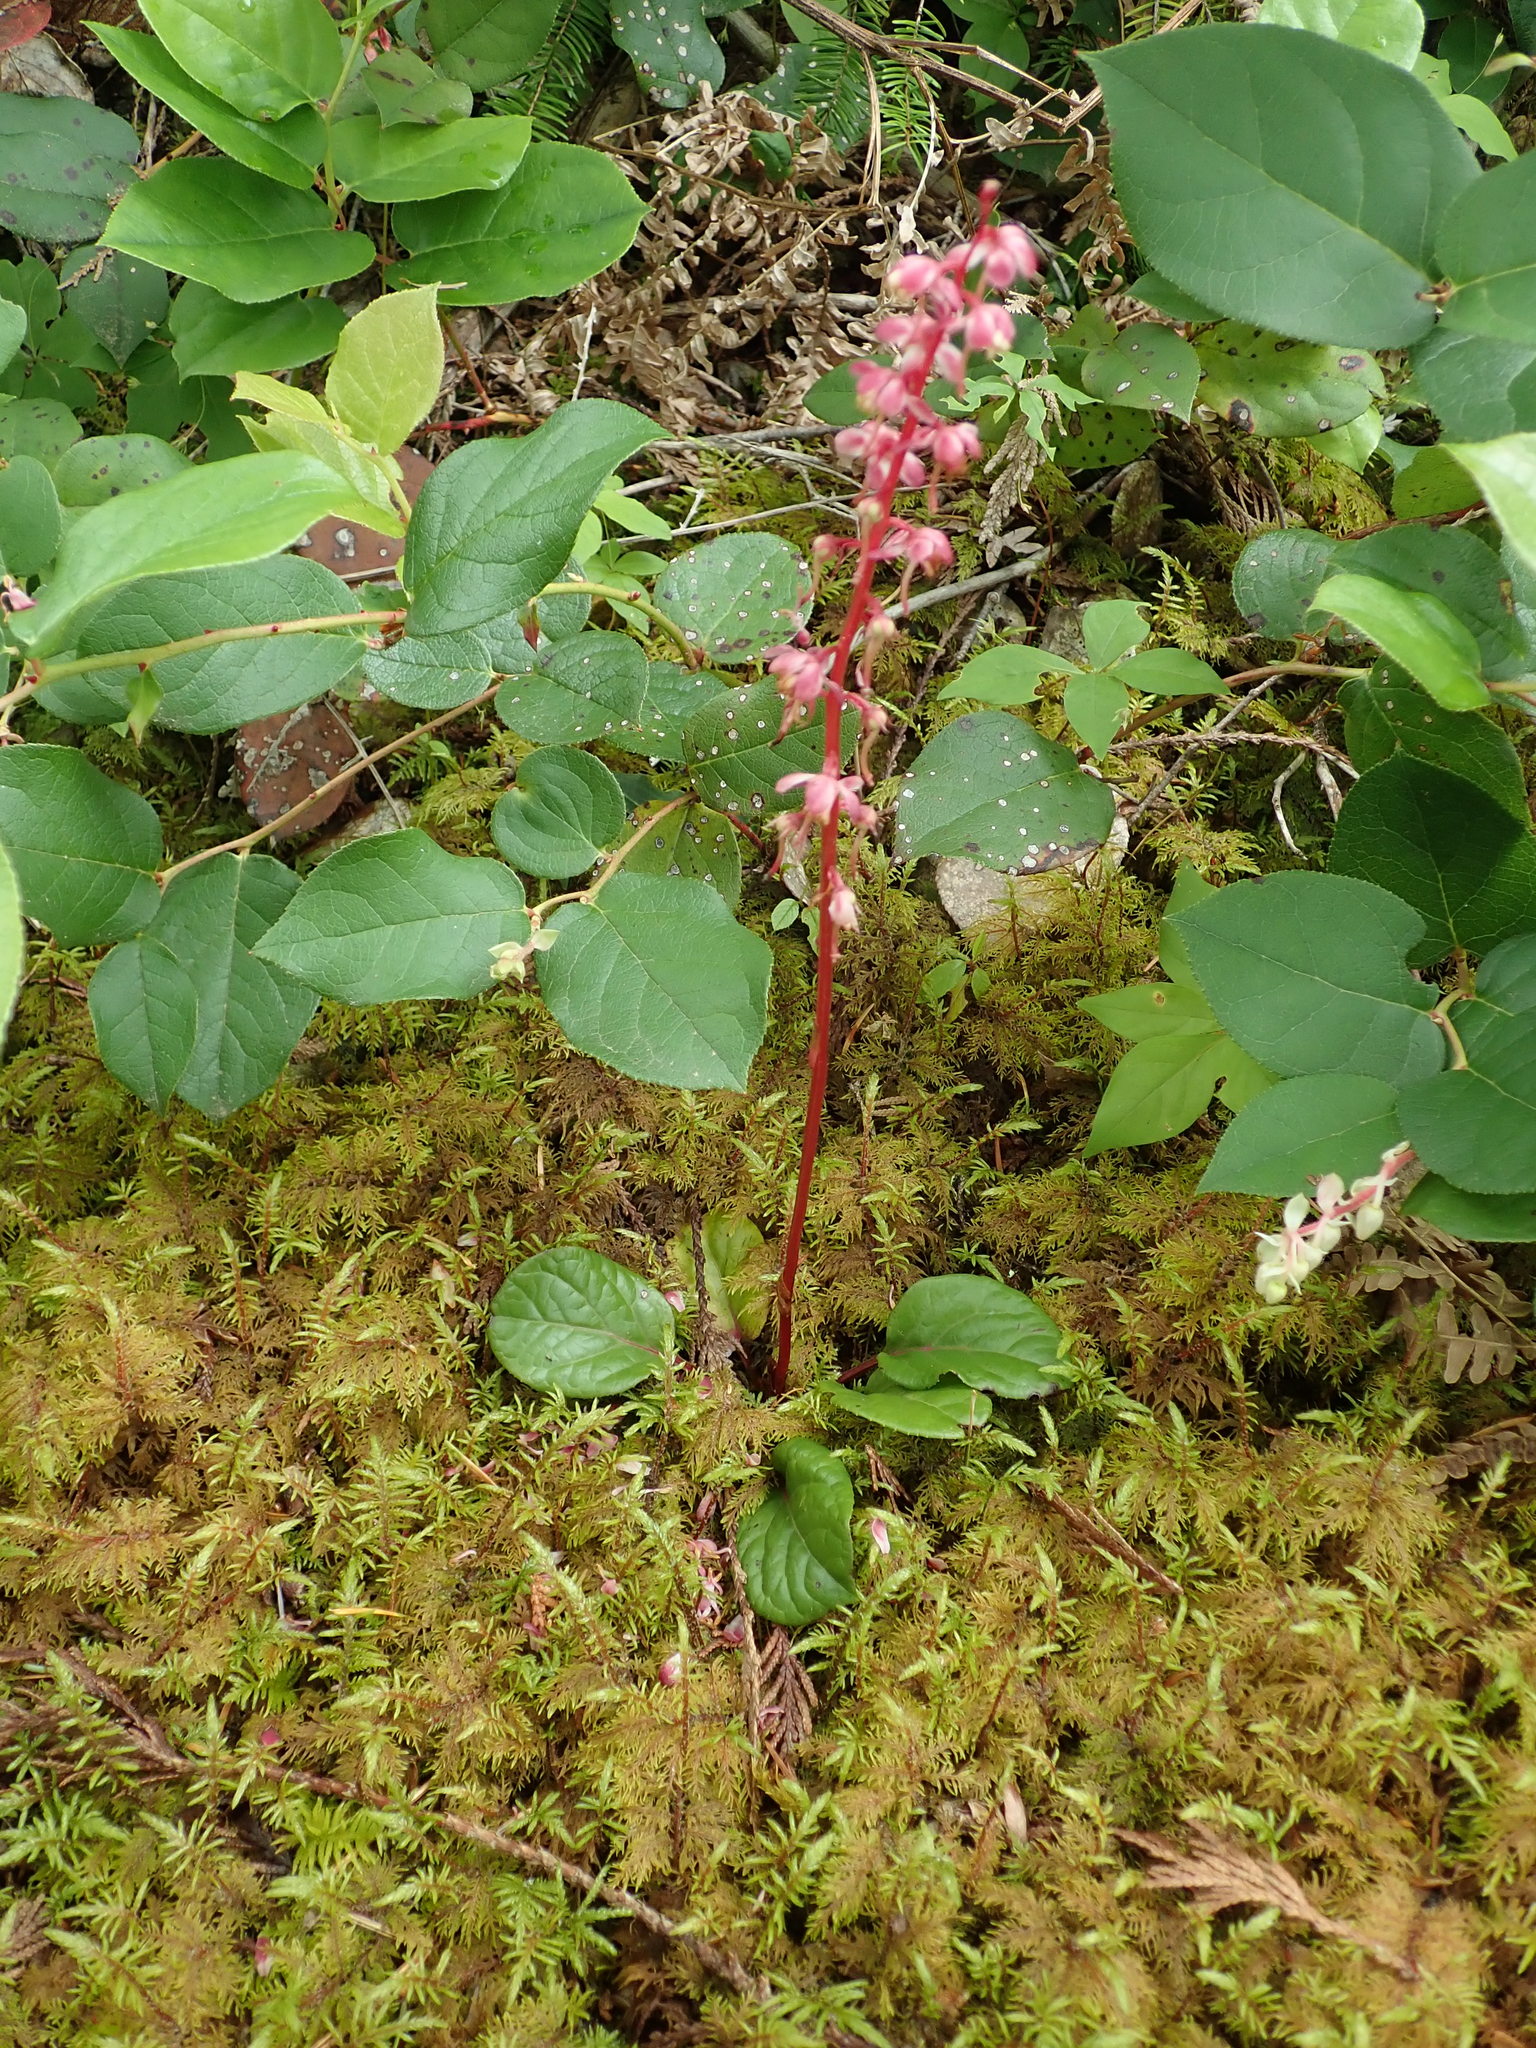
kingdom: Plantae
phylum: Tracheophyta
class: Magnoliopsida
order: Ericales
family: Ericaceae
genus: Pyrola
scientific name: Pyrola asarifolia
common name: Bog wintergreen
